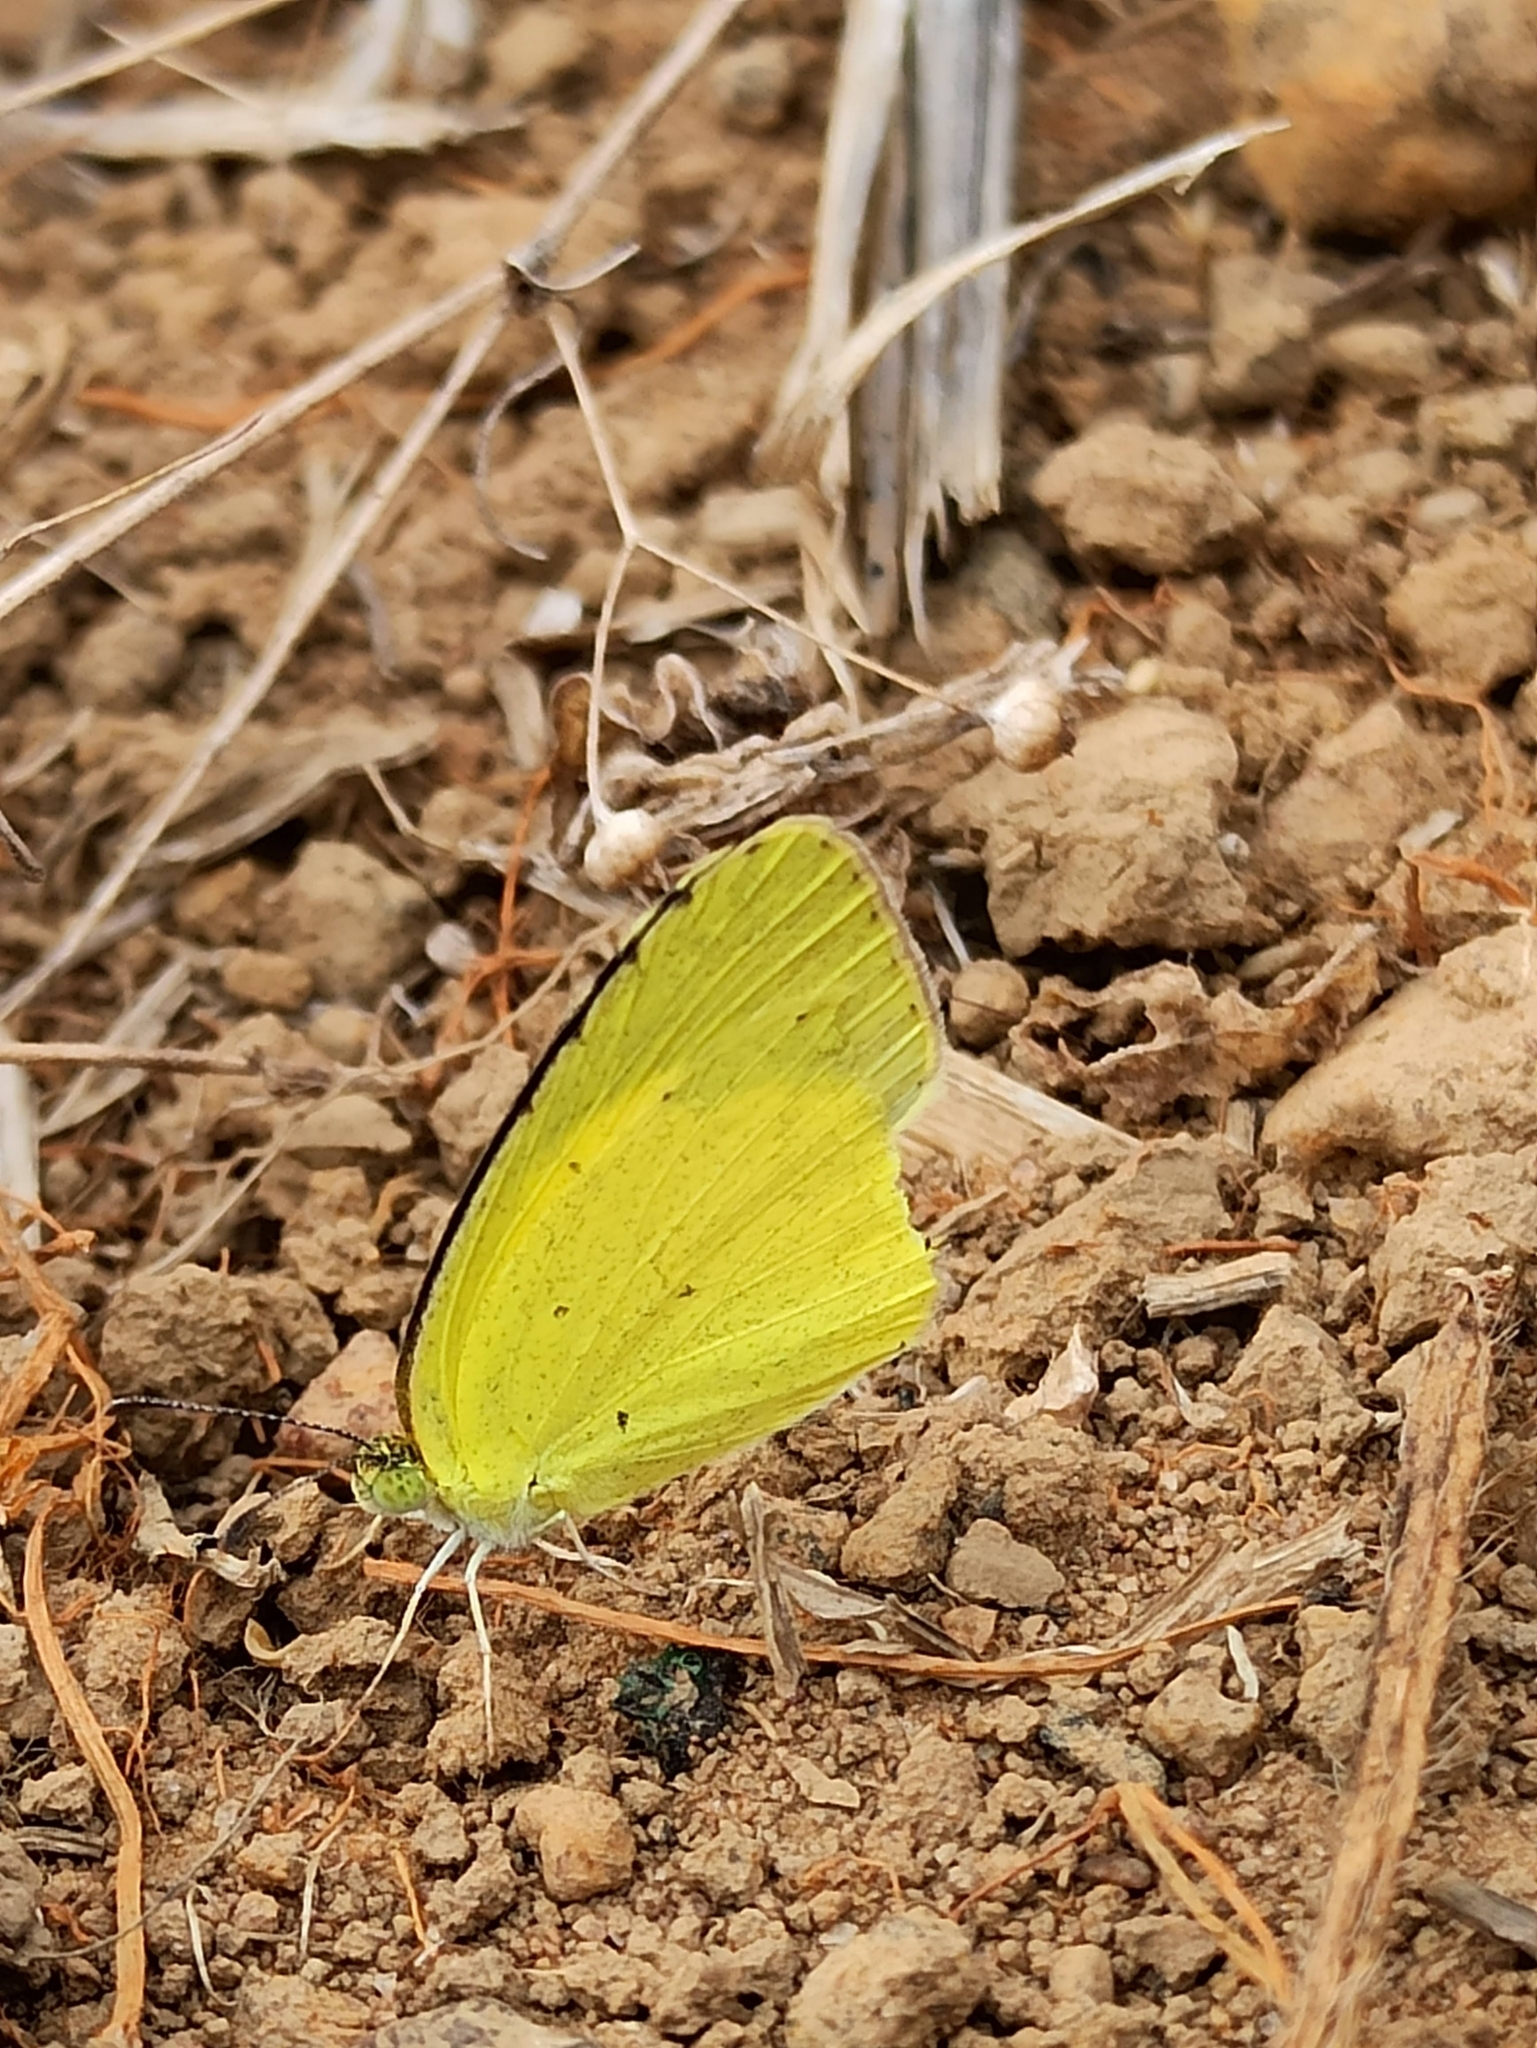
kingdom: Animalia
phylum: Arthropoda
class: Insecta
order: Lepidoptera
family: Pieridae
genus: Eurema
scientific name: Eurema brigitta
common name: Small grass yellow
